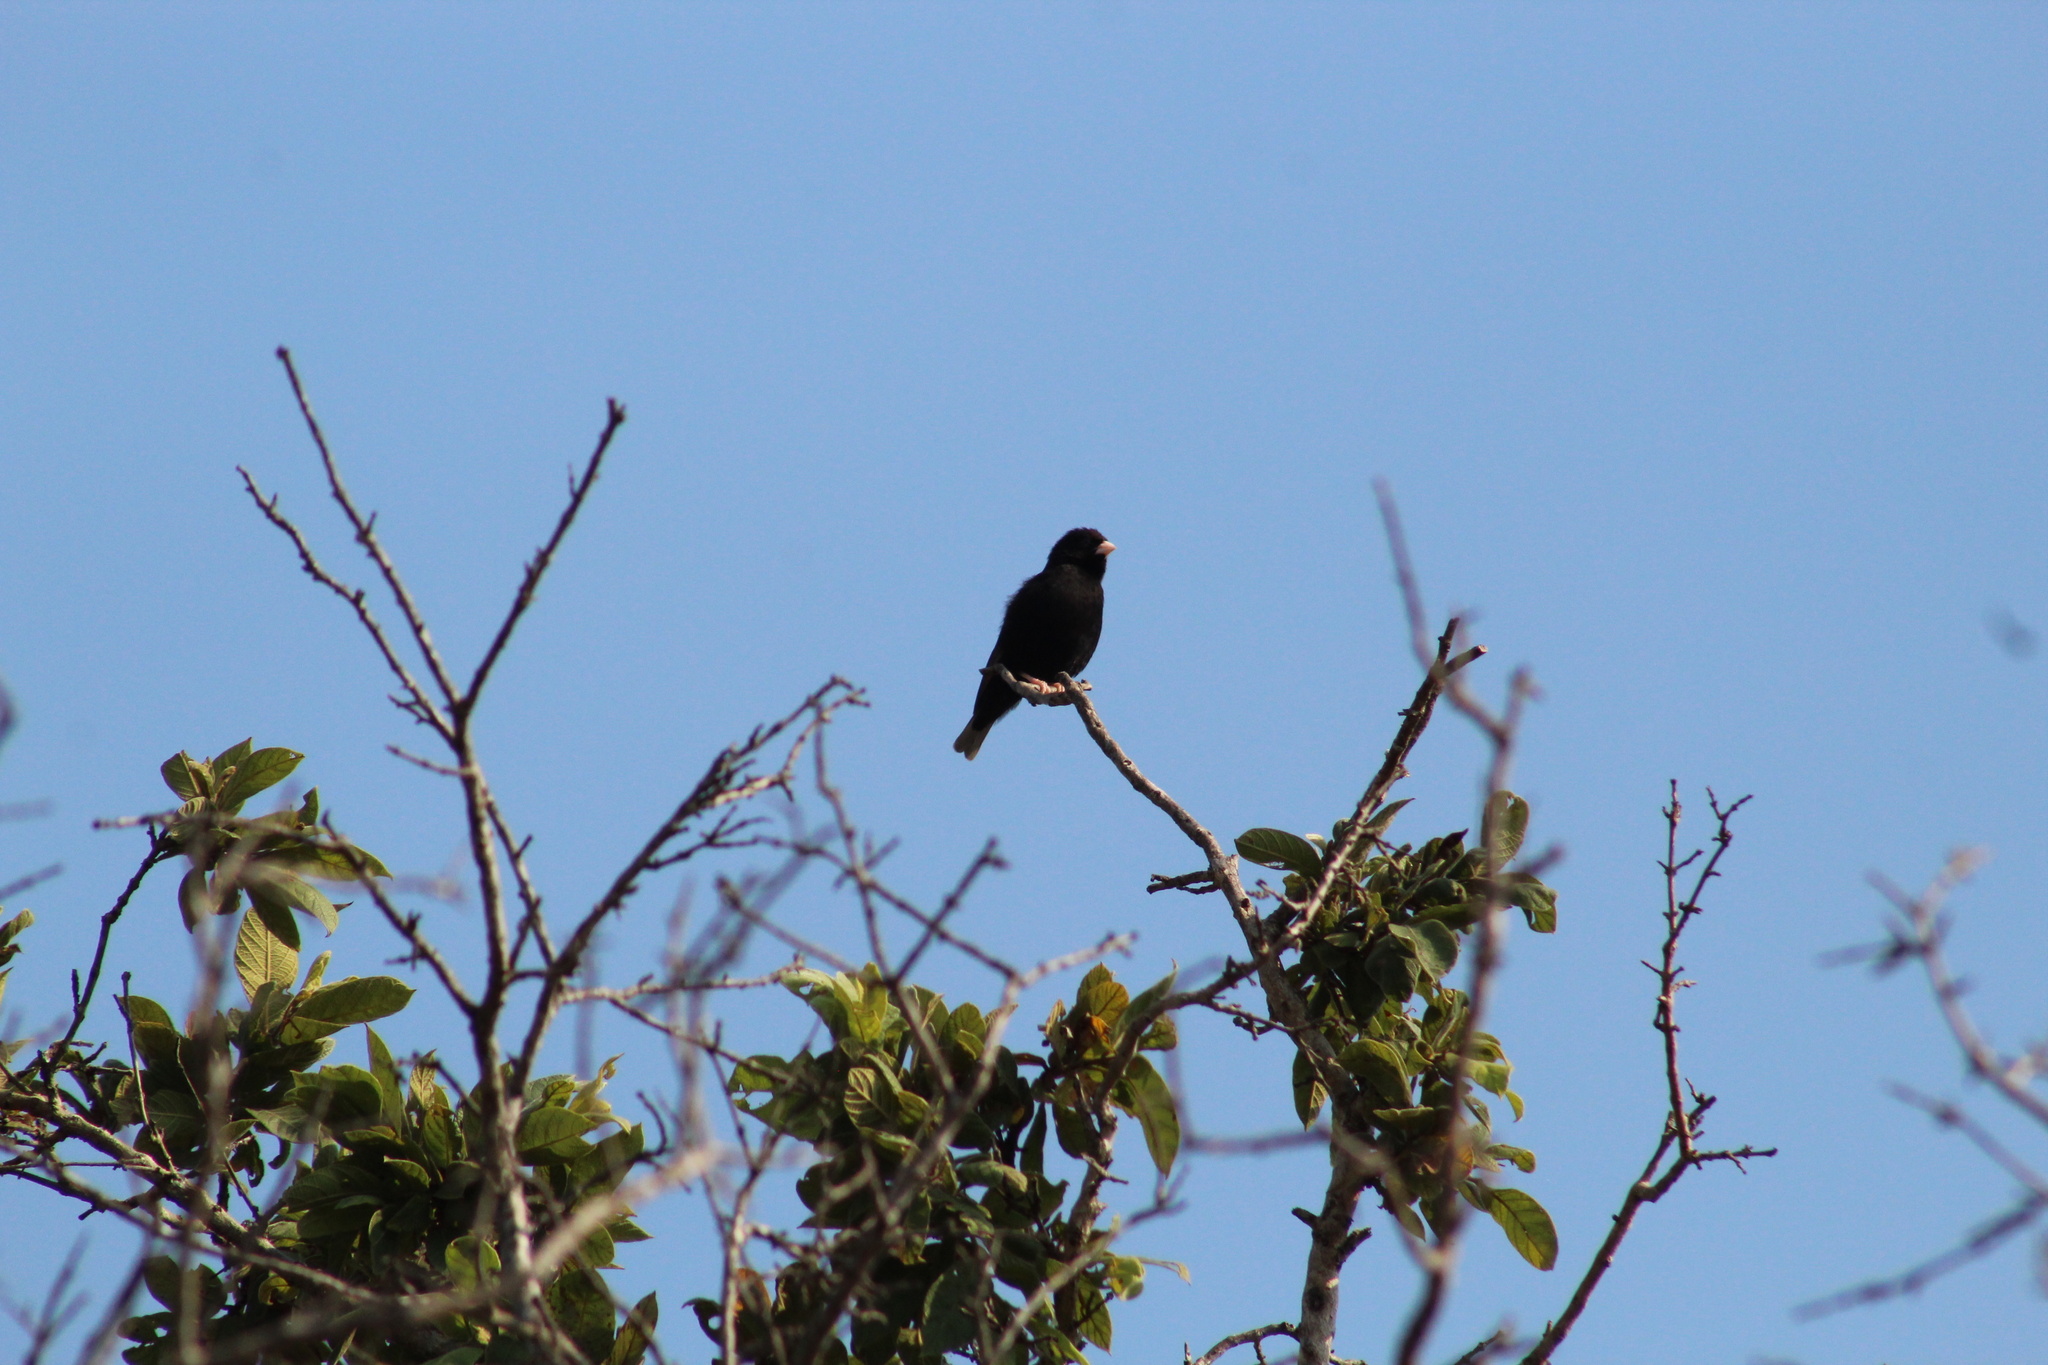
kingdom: Animalia
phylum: Chordata
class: Aves
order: Passeriformes
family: Viduidae
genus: Vidua
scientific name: Vidua chalybeata
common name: Village indigobird
